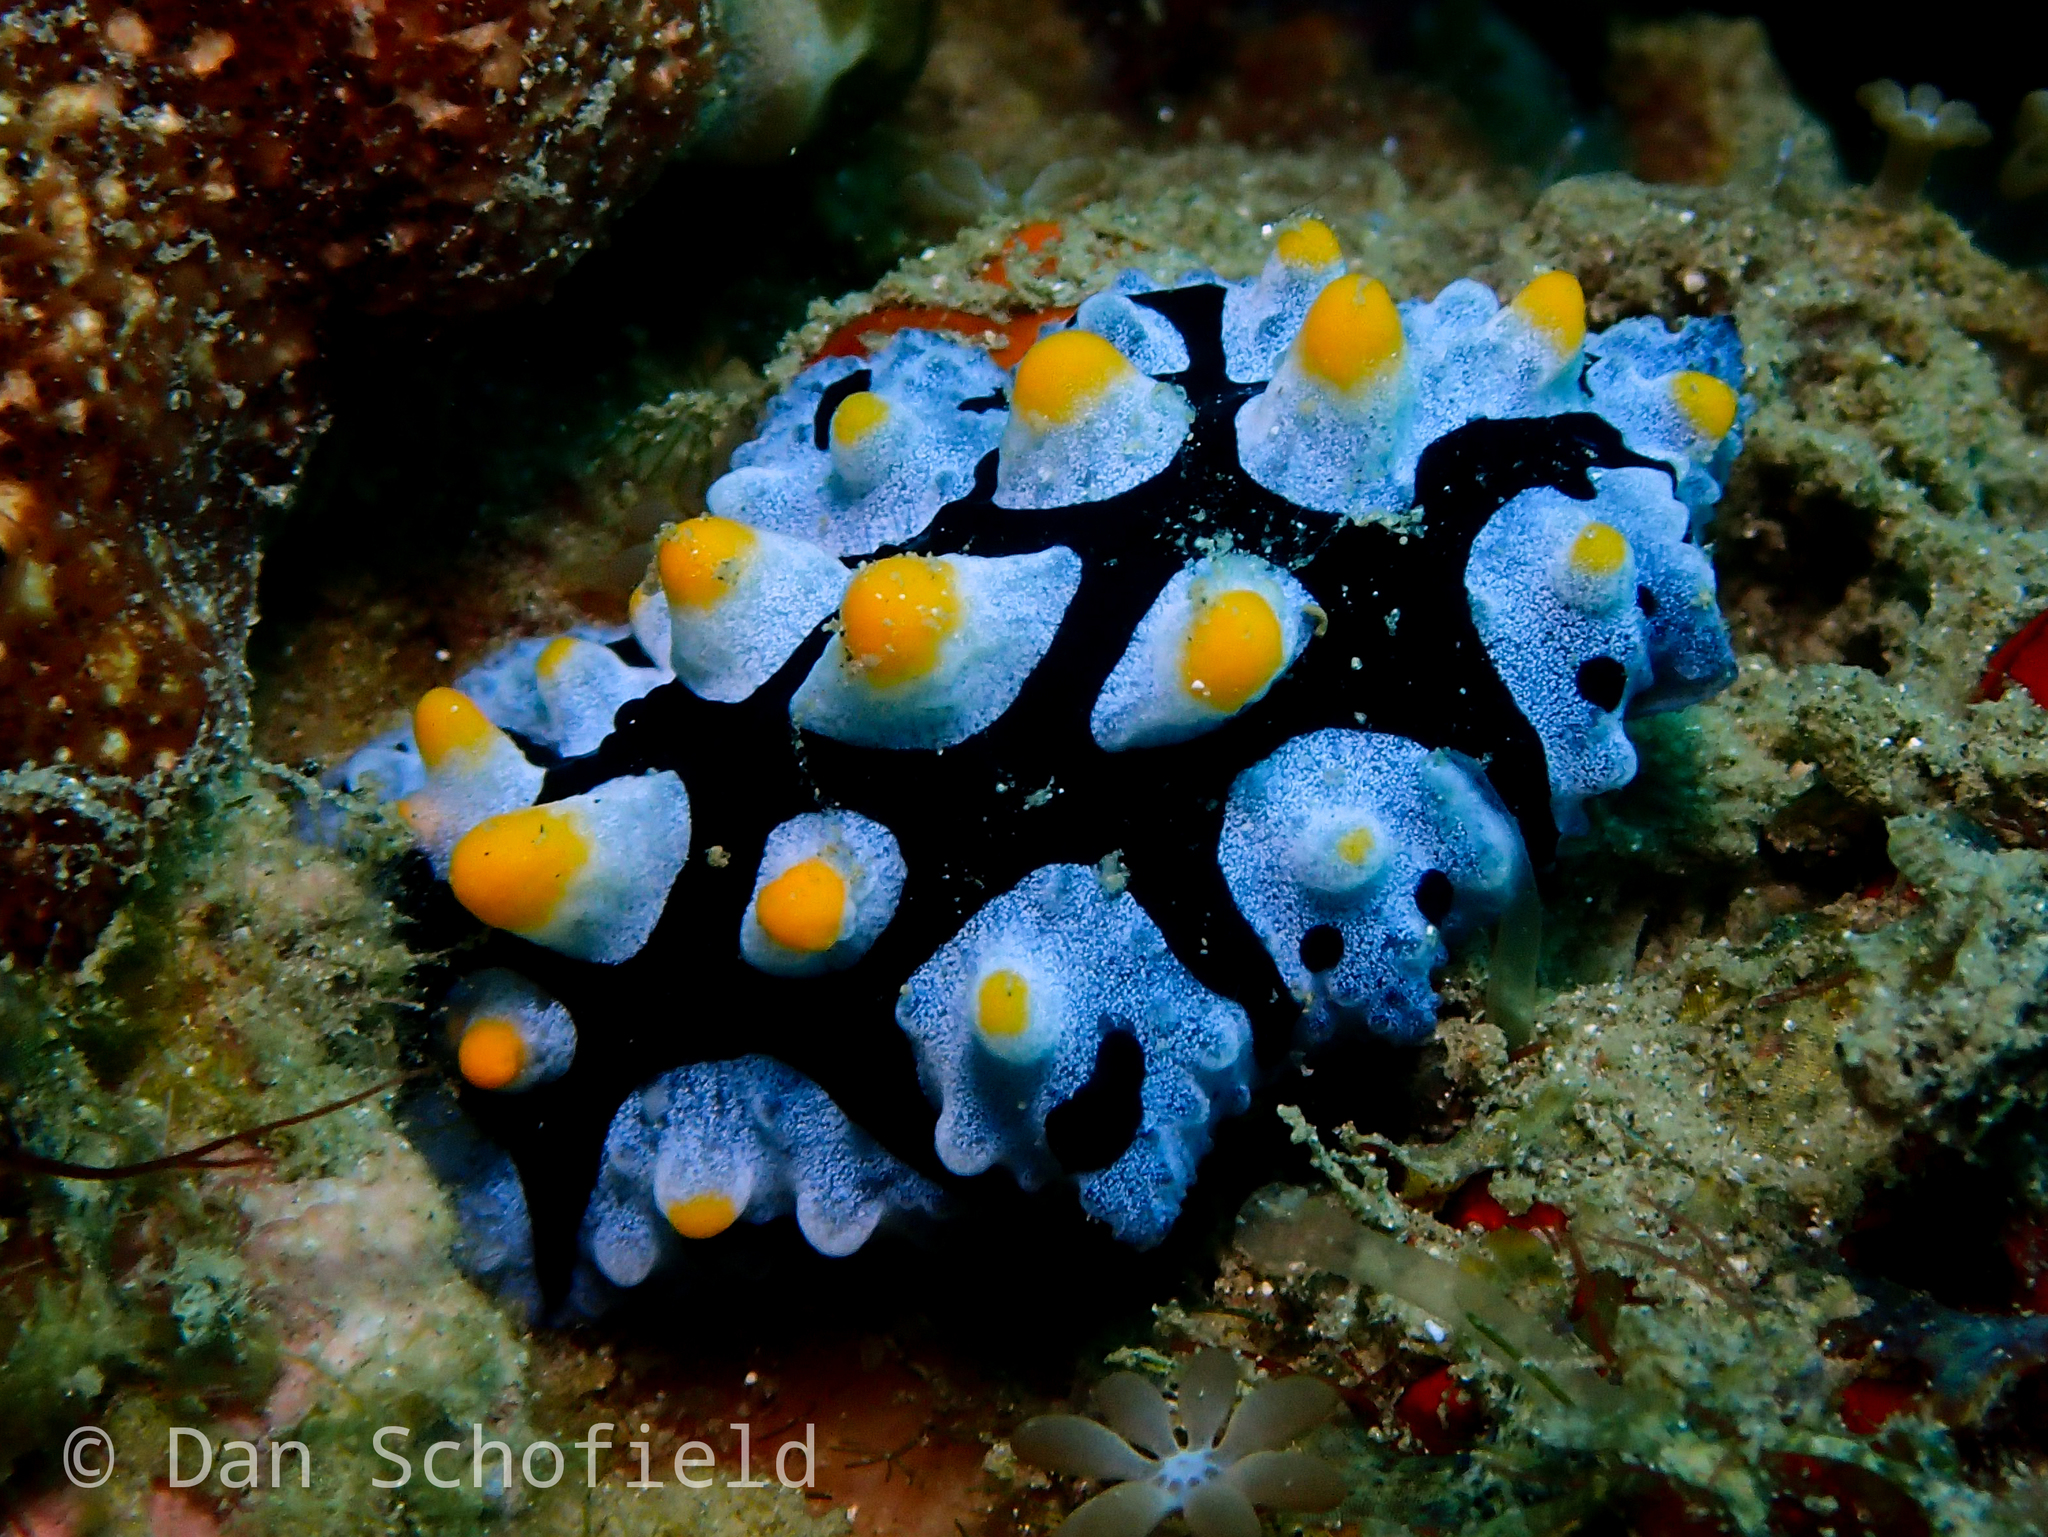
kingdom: Animalia
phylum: Mollusca
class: Gastropoda
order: Nudibranchia
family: Phyllidiidae
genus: Phyllidia
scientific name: Phyllidia picta
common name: Black-rayed phyllidia
